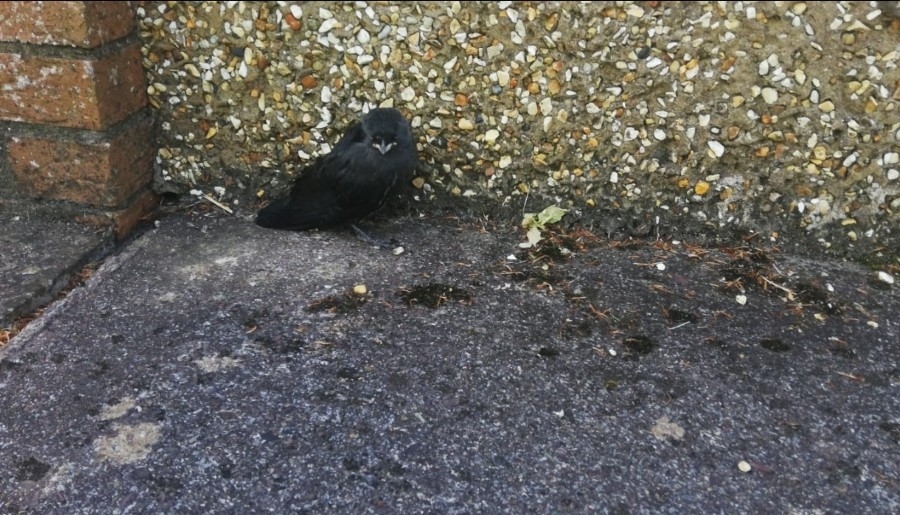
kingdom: Animalia
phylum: Chordata
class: Aves
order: Passeriformes
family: Corvidae
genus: Coloeus
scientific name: Coloeus monedula
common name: Western jackdaw
